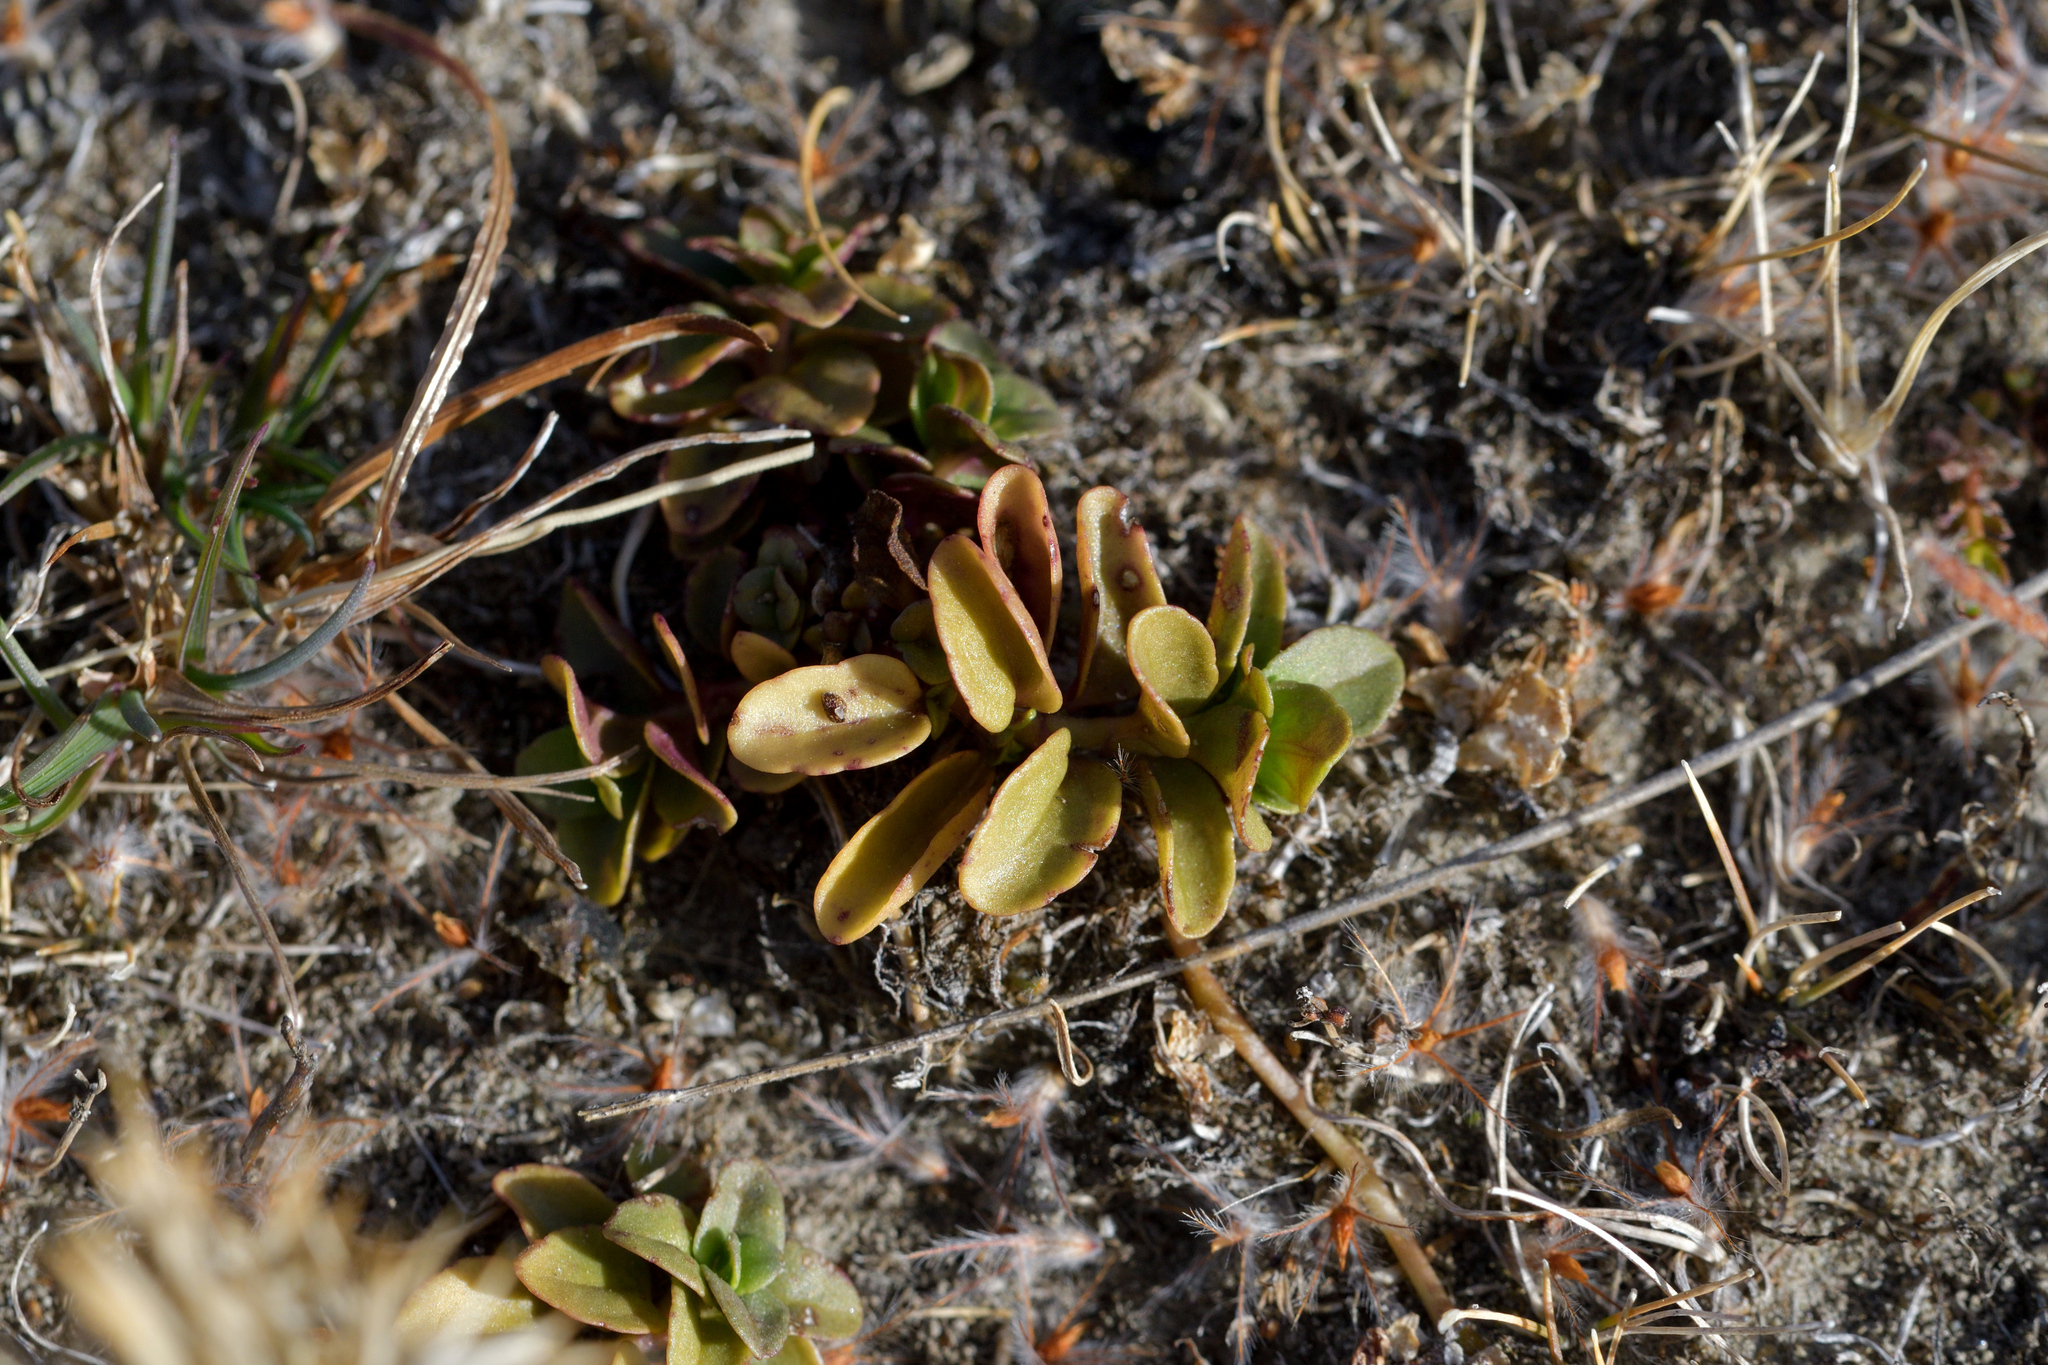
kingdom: Plantae
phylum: Tracheophyta
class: Magnoliopsida
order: Malpighiales
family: Violaceae
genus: Viola
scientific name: Viola cunninghamii
